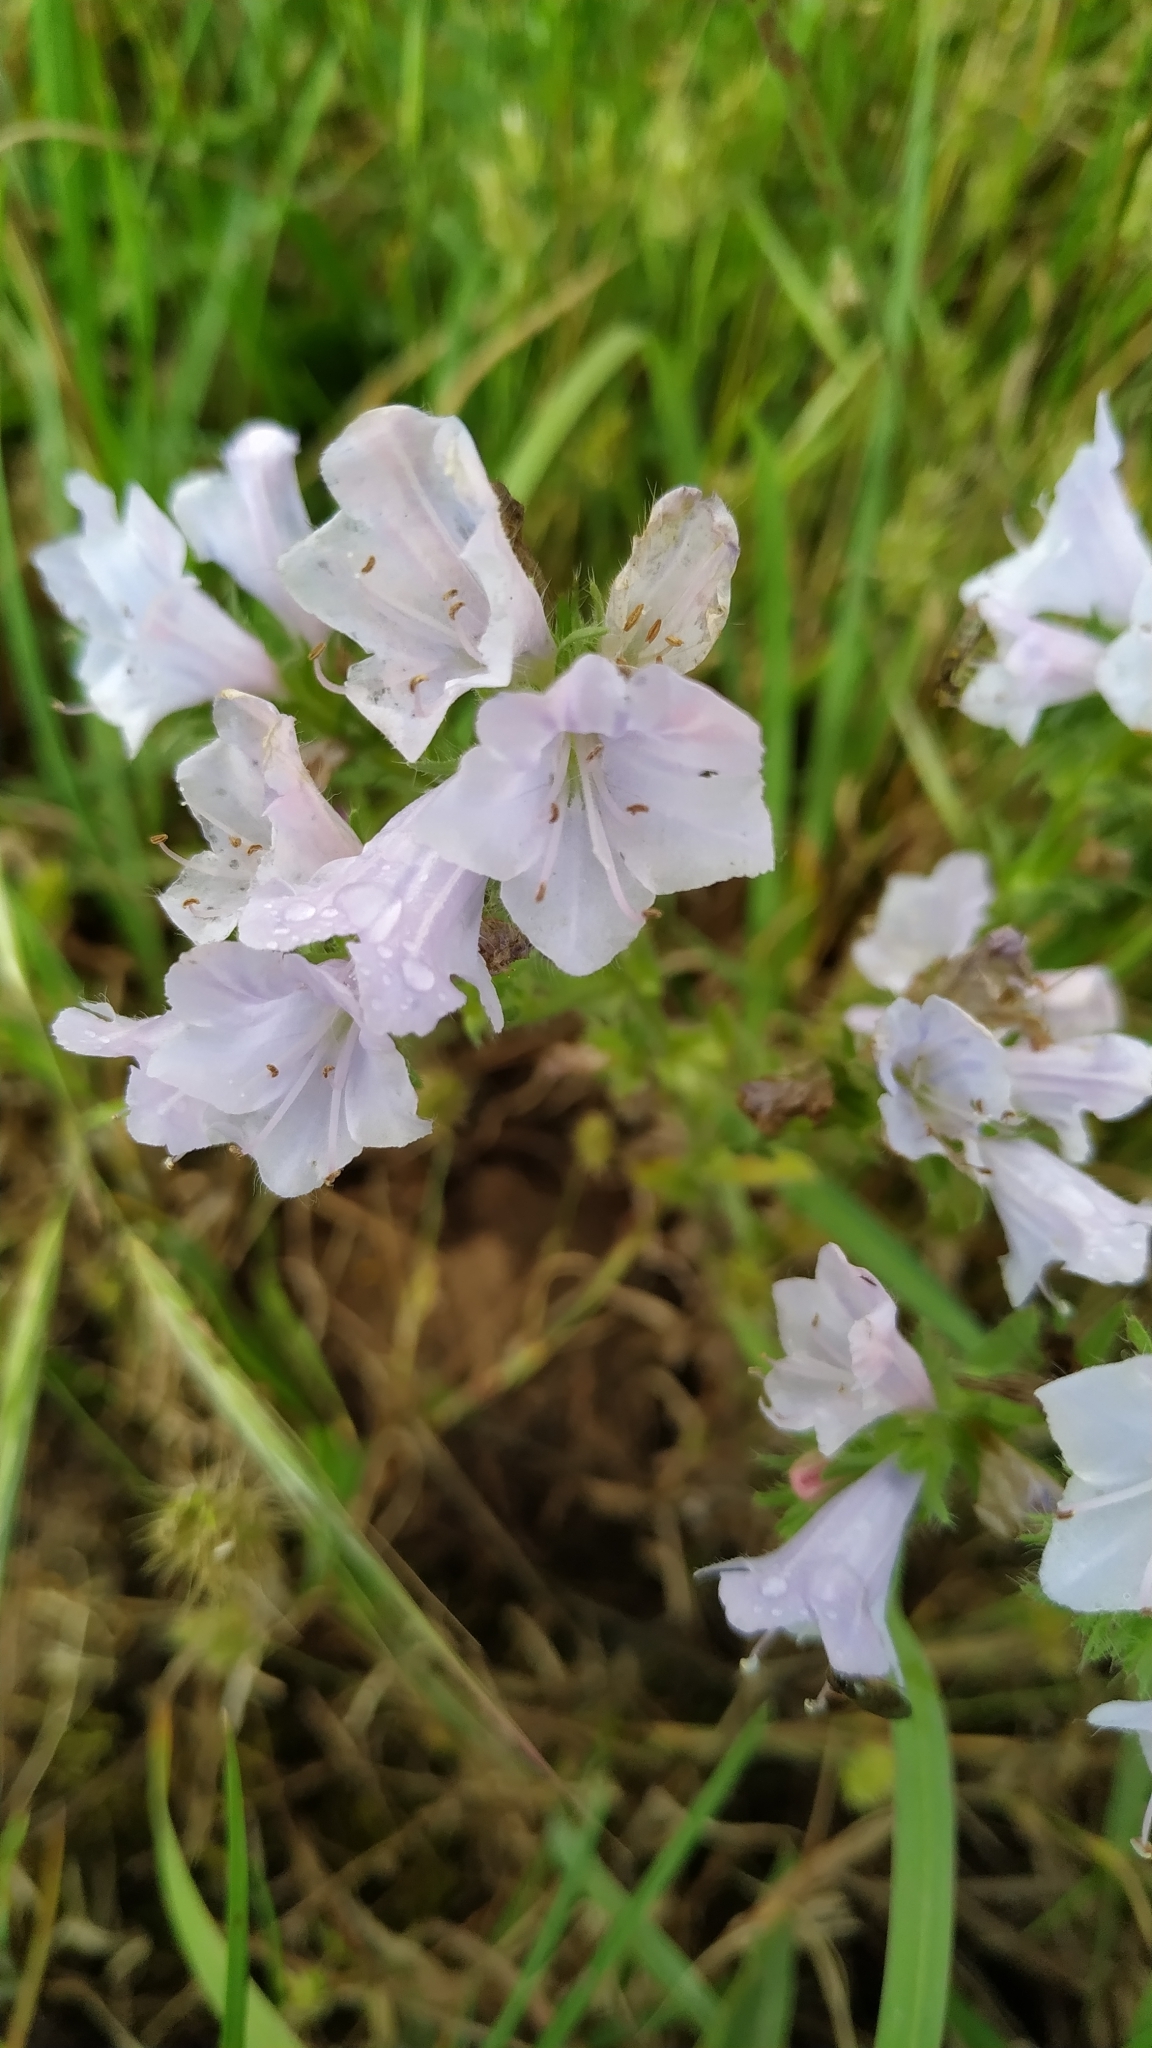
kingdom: Plantae
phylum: Tracheophyta
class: Magnoliopsida
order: Boraginales
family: Boraginaceae
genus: Echium
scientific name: Echium plantagineum
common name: Purple viper's-bugloss
